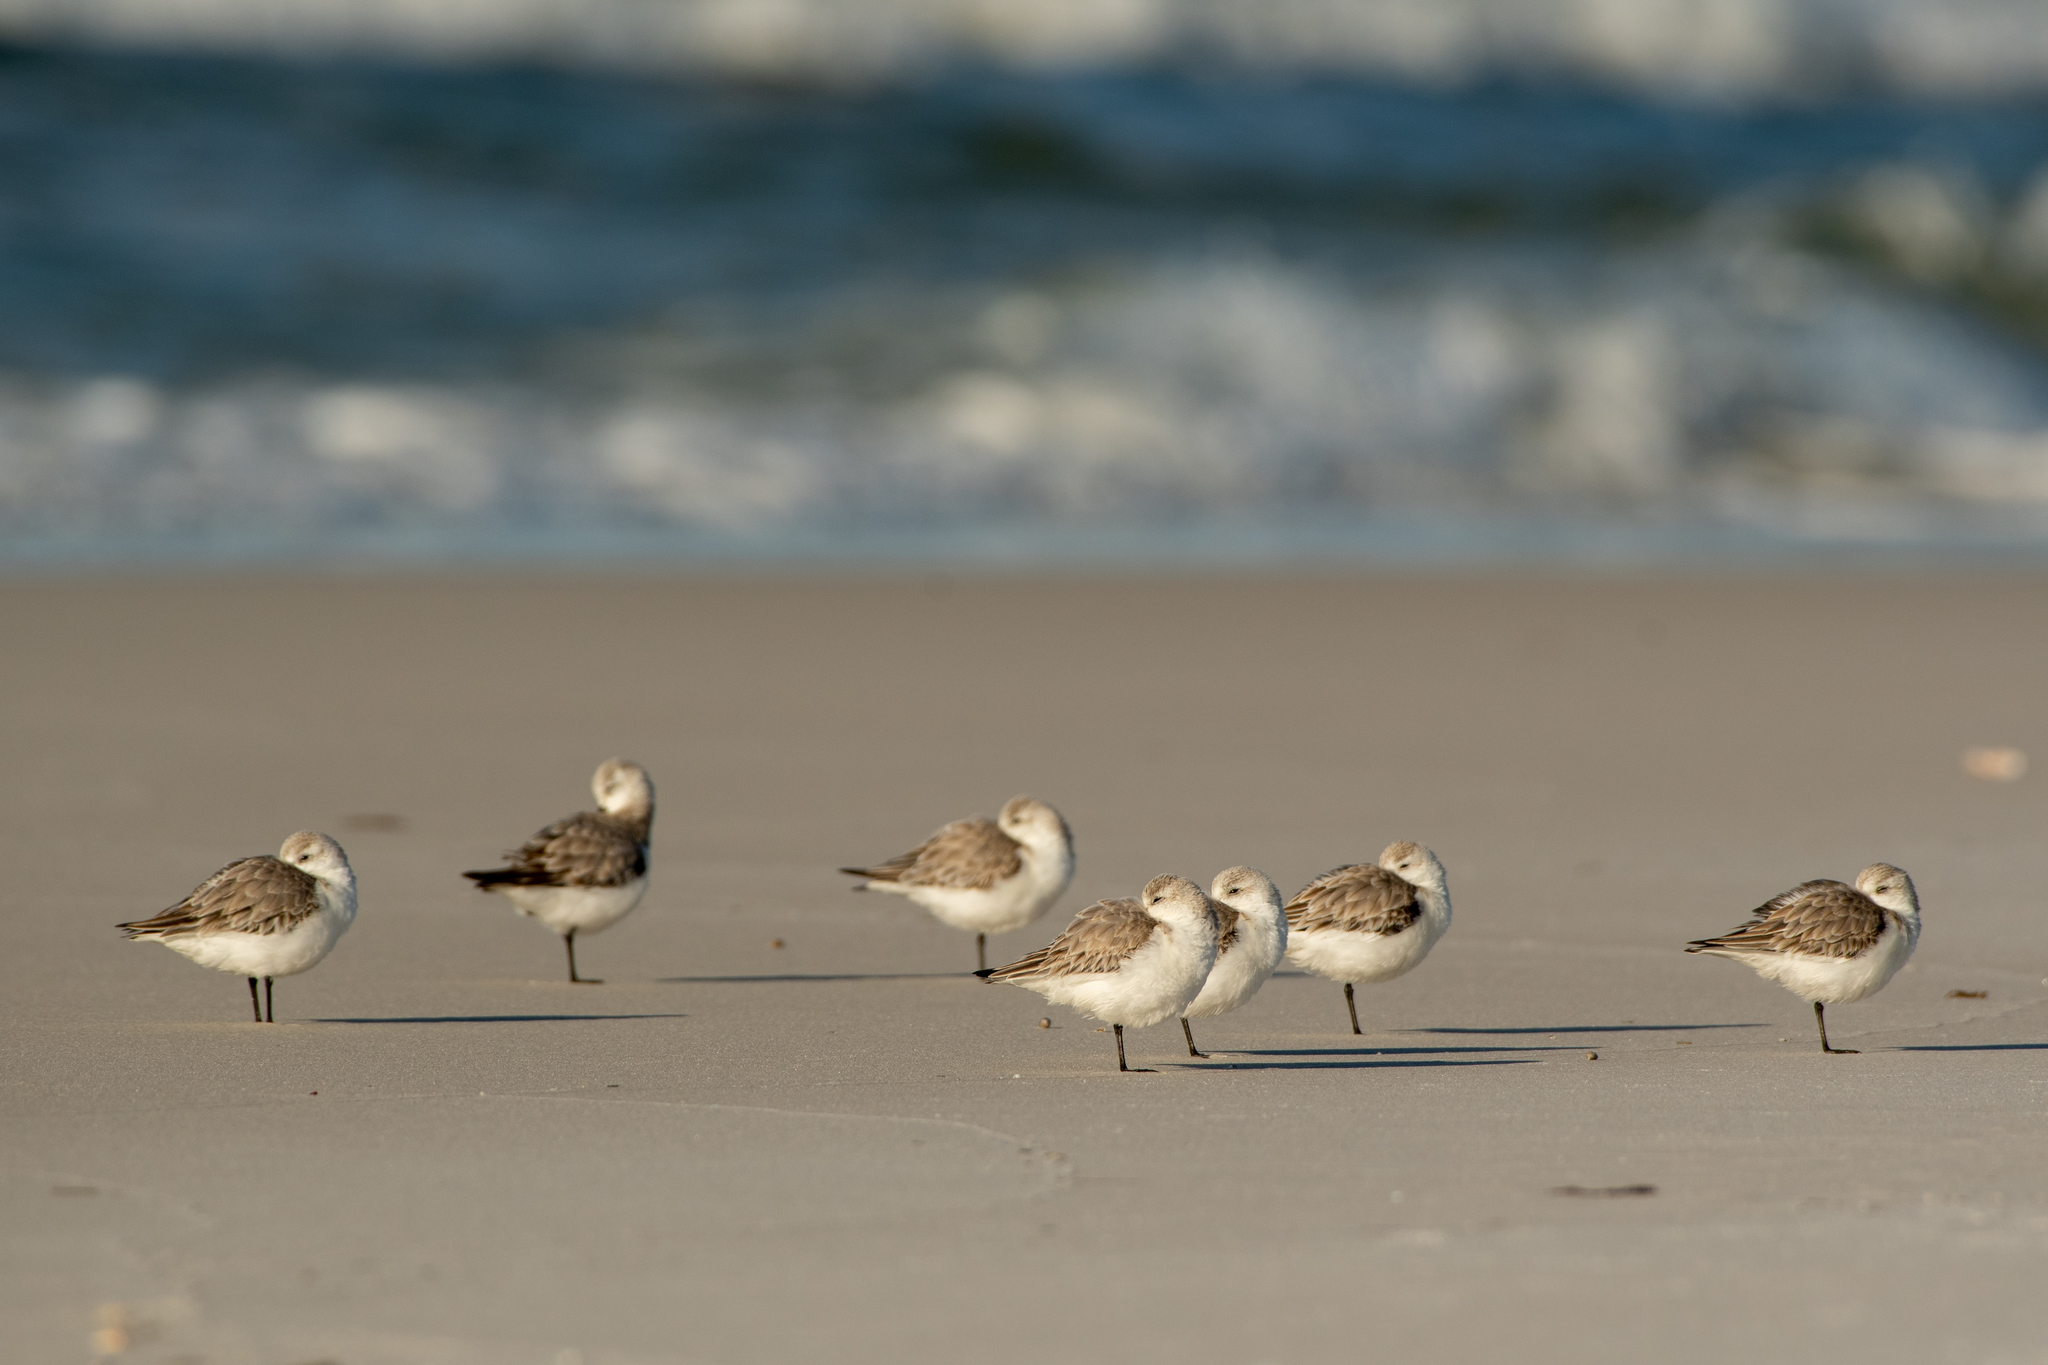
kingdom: Animalia
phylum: Chordata
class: Aves
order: Charadriiformes
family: Scolopacidae
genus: Calidris
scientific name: Calidris alba
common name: Sanderling
